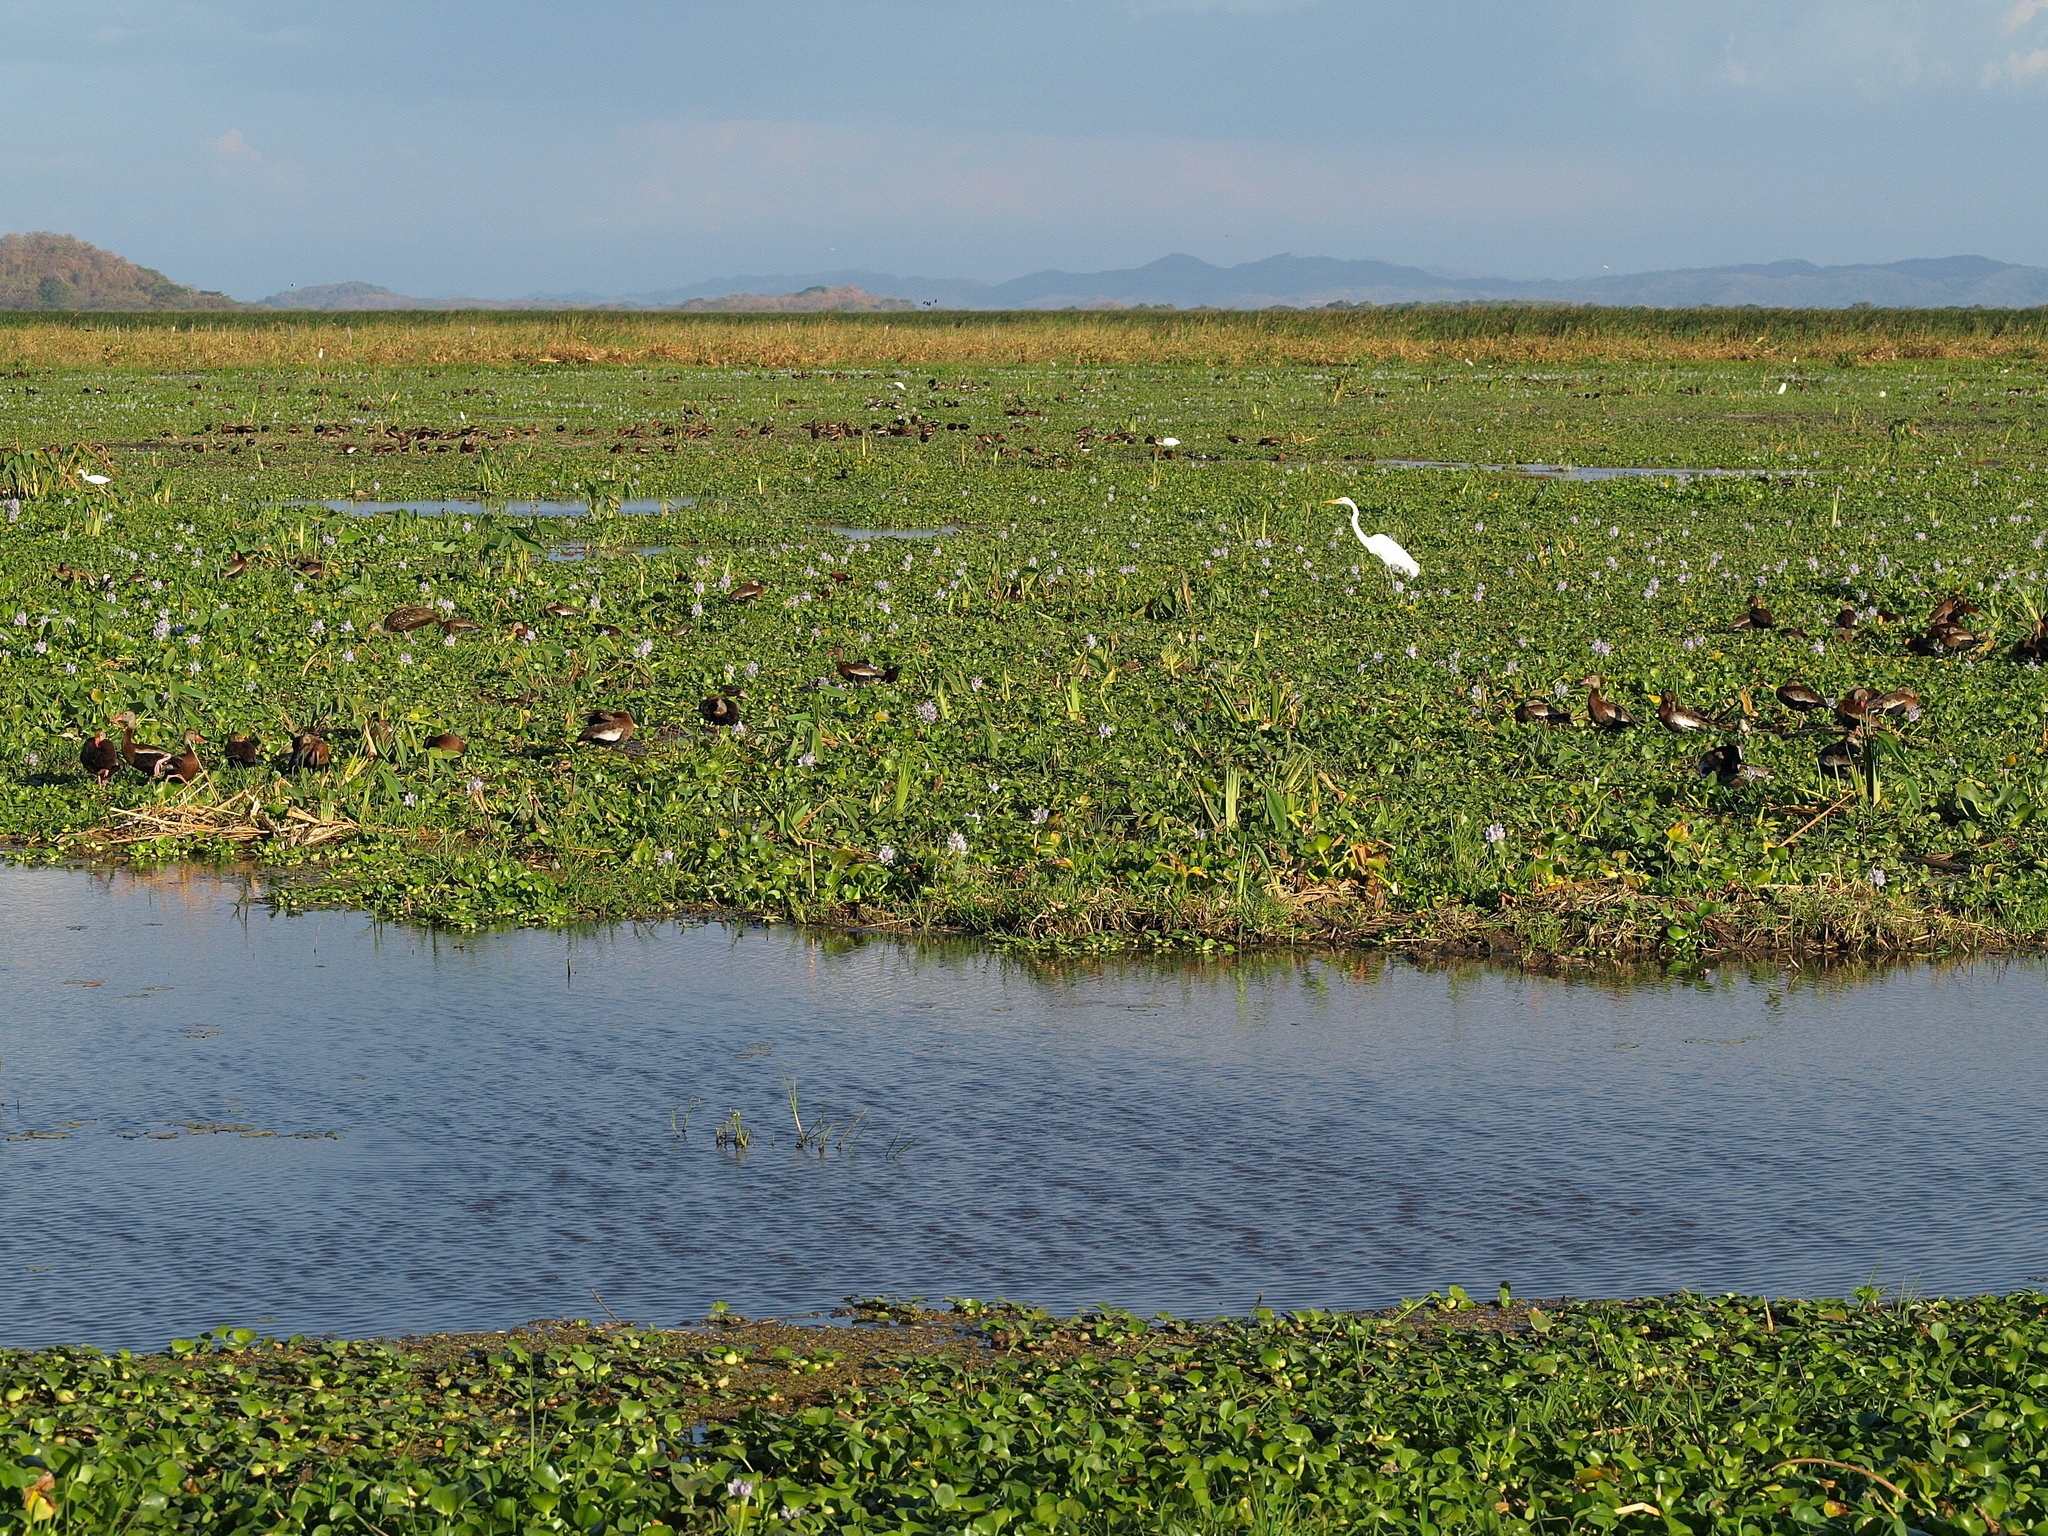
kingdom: Animalia
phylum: Chordata
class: Aves
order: Pelecaniformes
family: Ardeidae
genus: Ardea
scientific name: Ardea alba
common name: Great egret
